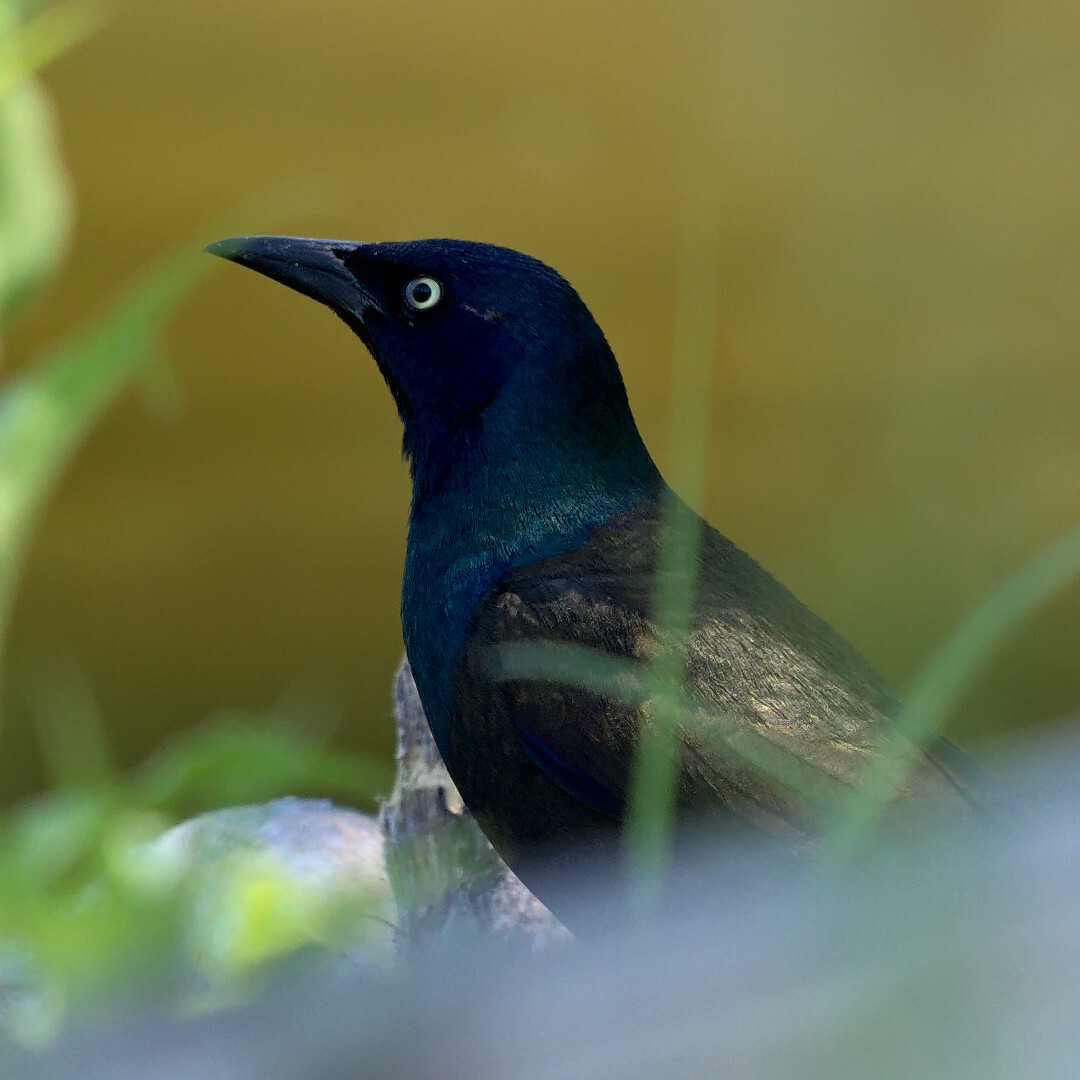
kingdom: Animalia
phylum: Chordata
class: Aves
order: Passeriformes
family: Icteridae
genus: Quiscalus
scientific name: Quiscalus quiscula
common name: Common grackle
